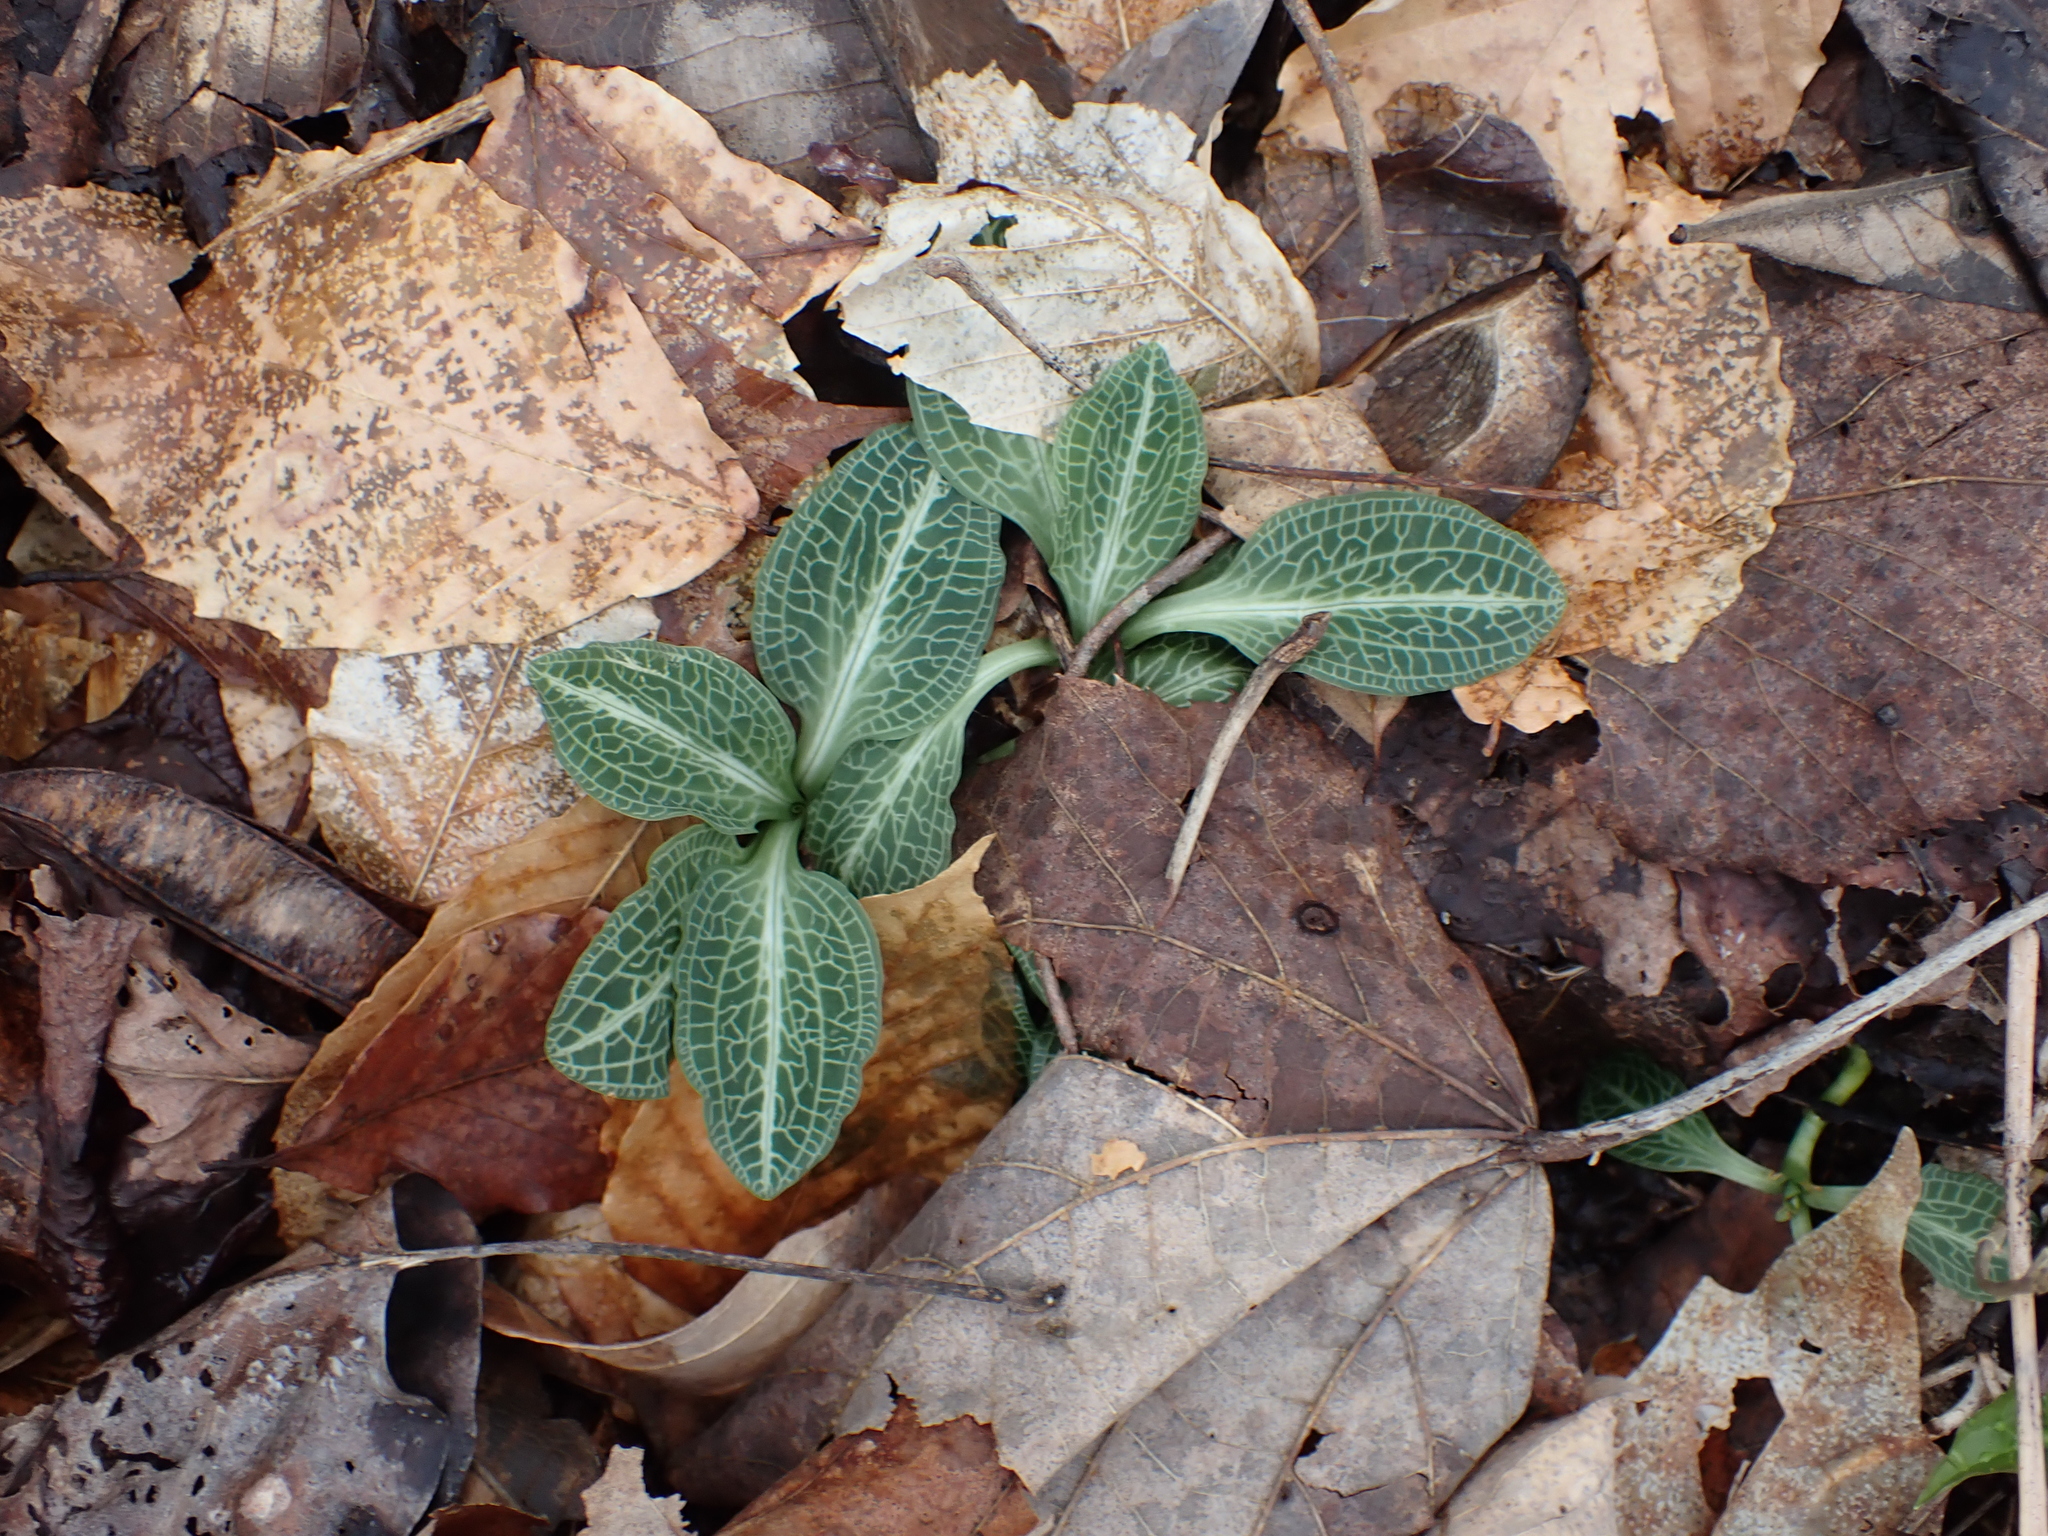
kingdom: Plantae
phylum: Tracheophyta
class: Liliopsida
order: Asparagales
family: Orchidaceae
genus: Goodyera
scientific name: Goodyera pubescens
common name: Downy rattlesnake-plantain
